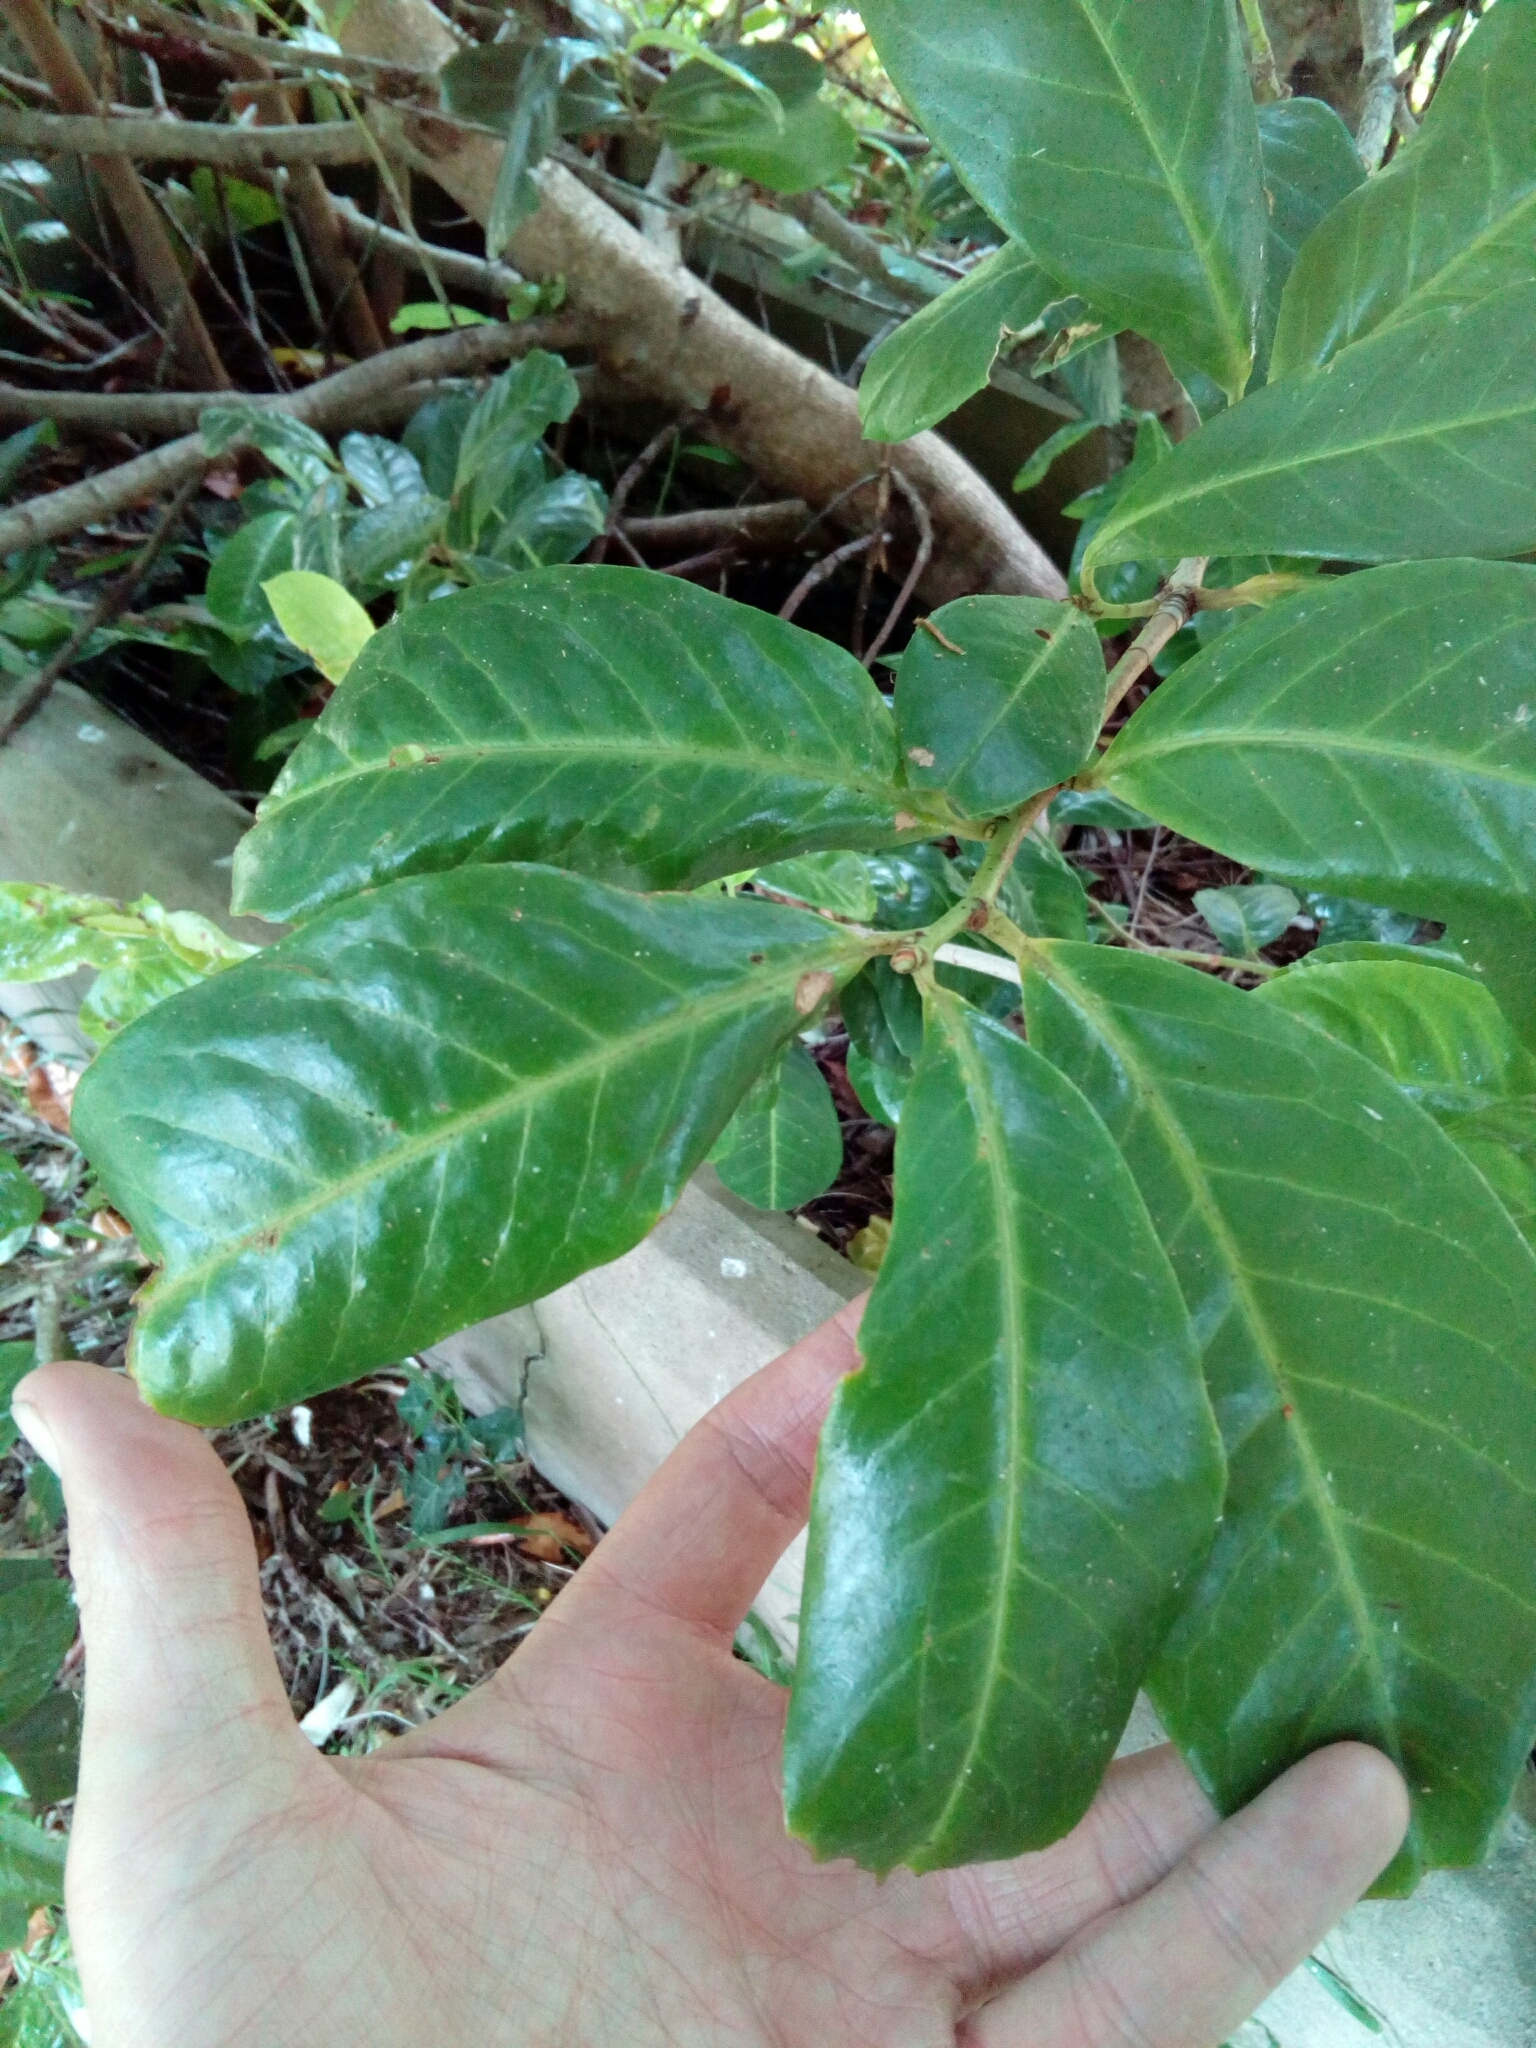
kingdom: Plantae
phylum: Tracheophyta
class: Magnoliopsida
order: Rosales
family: Rosaceae
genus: Prunus
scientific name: Prunus laurocerasus
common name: Cherry laurel
